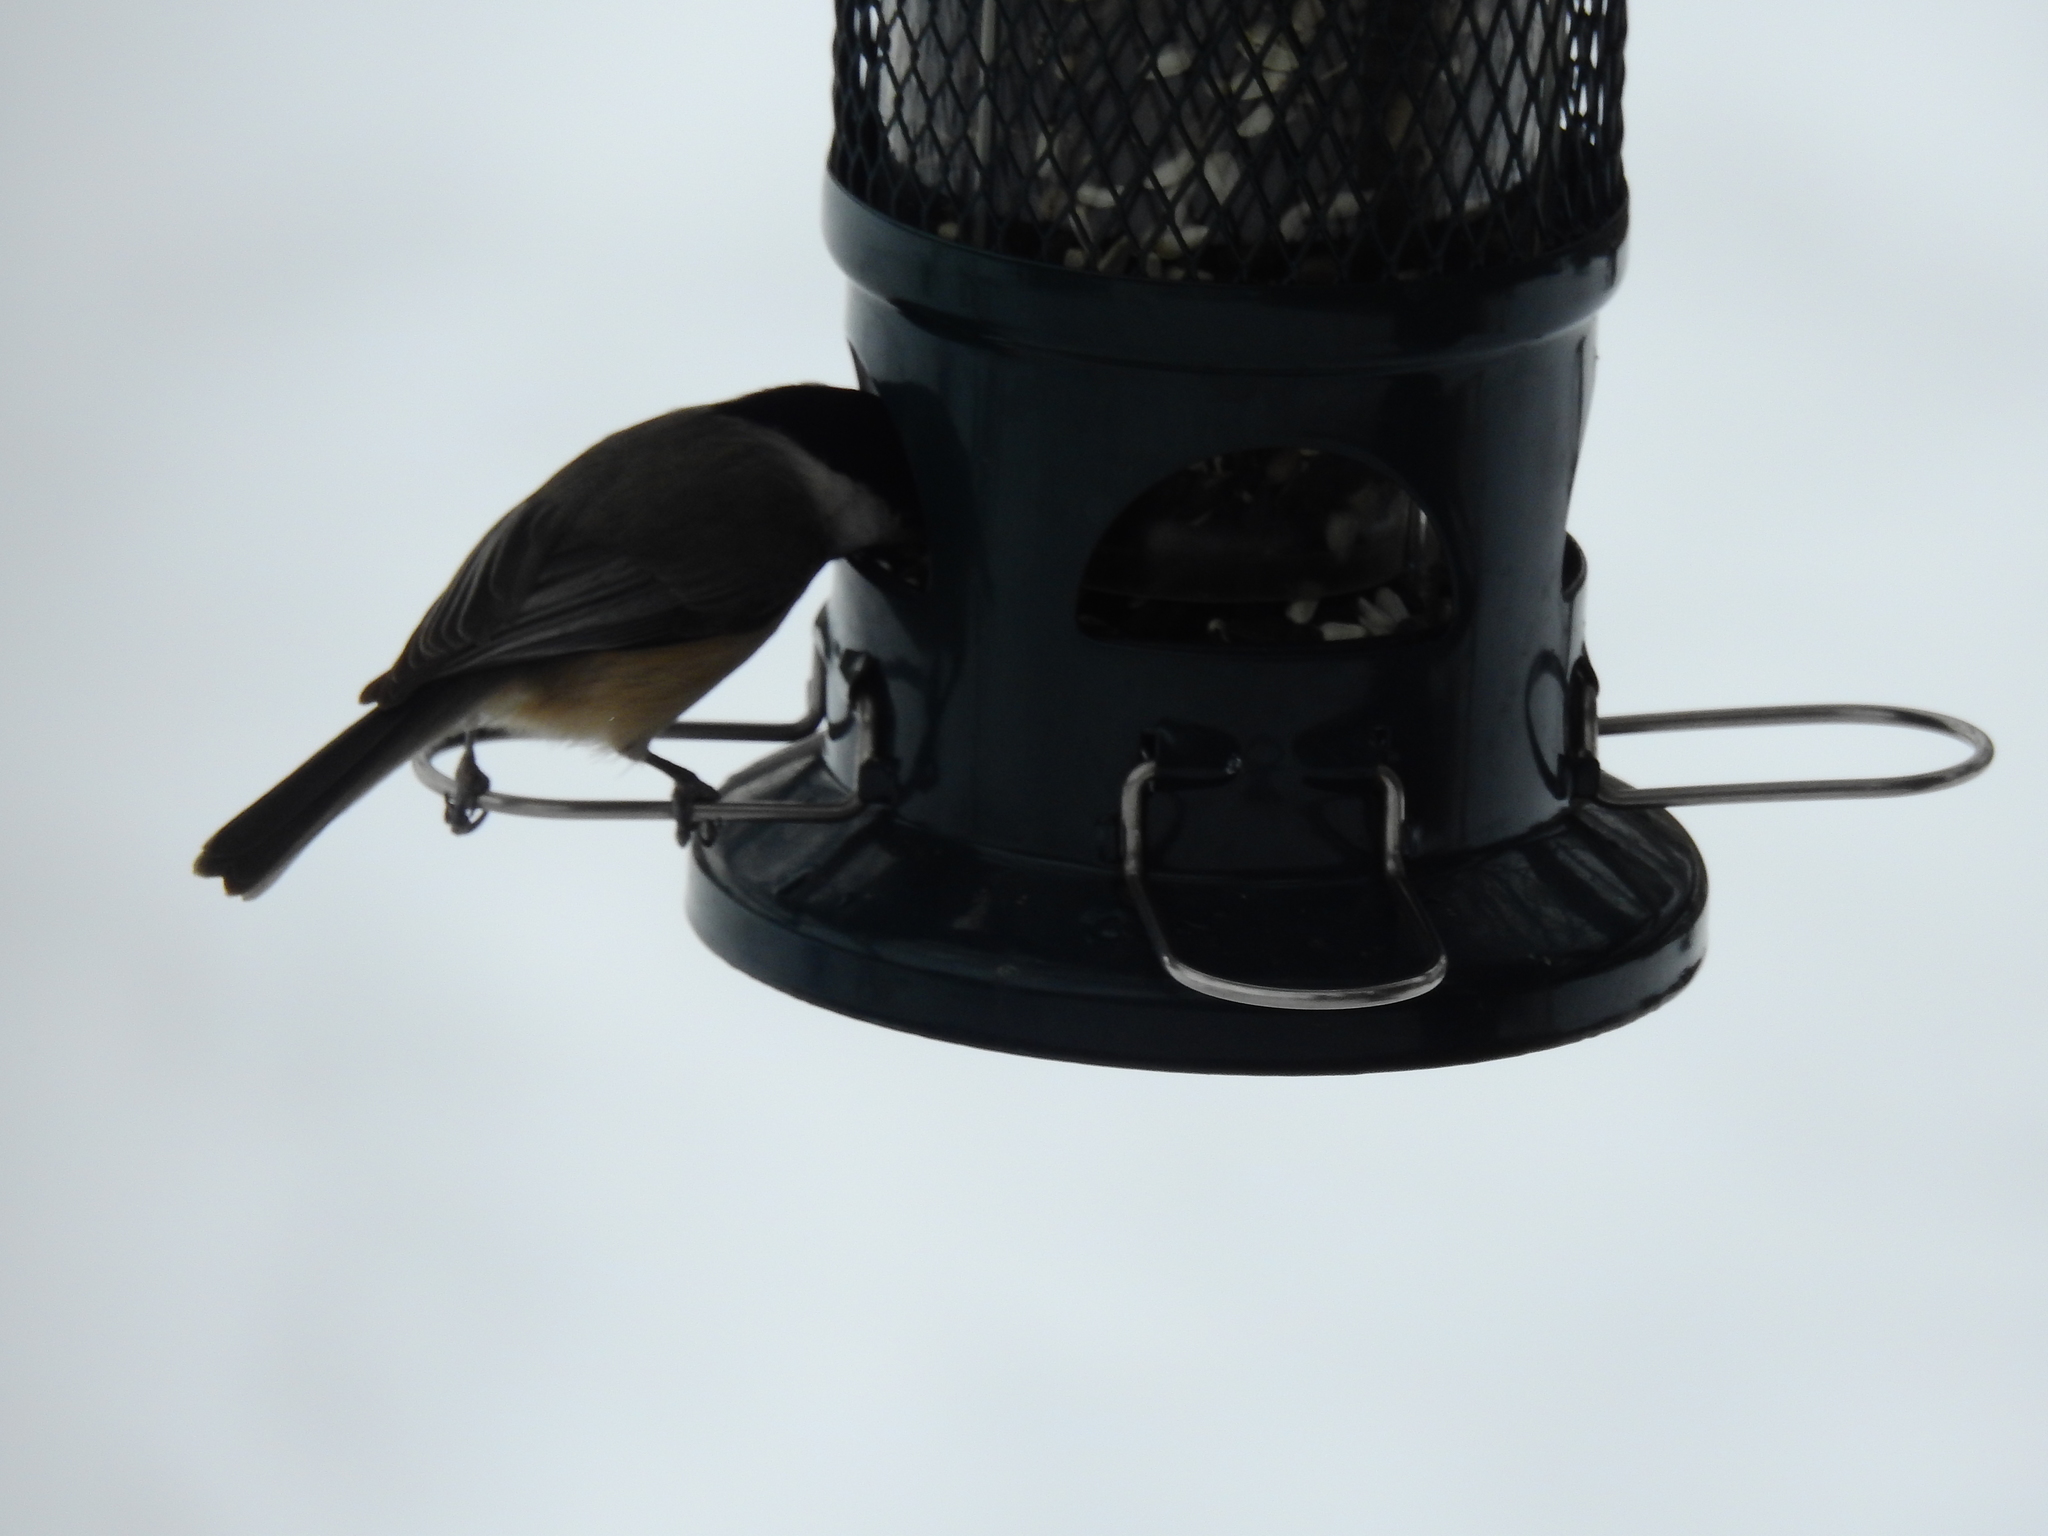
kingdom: Animalia
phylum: Chordata
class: Aves
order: Passeriformes
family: Paridae
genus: Poecile
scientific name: Poecile carolinensis
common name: Carolina chickadee
